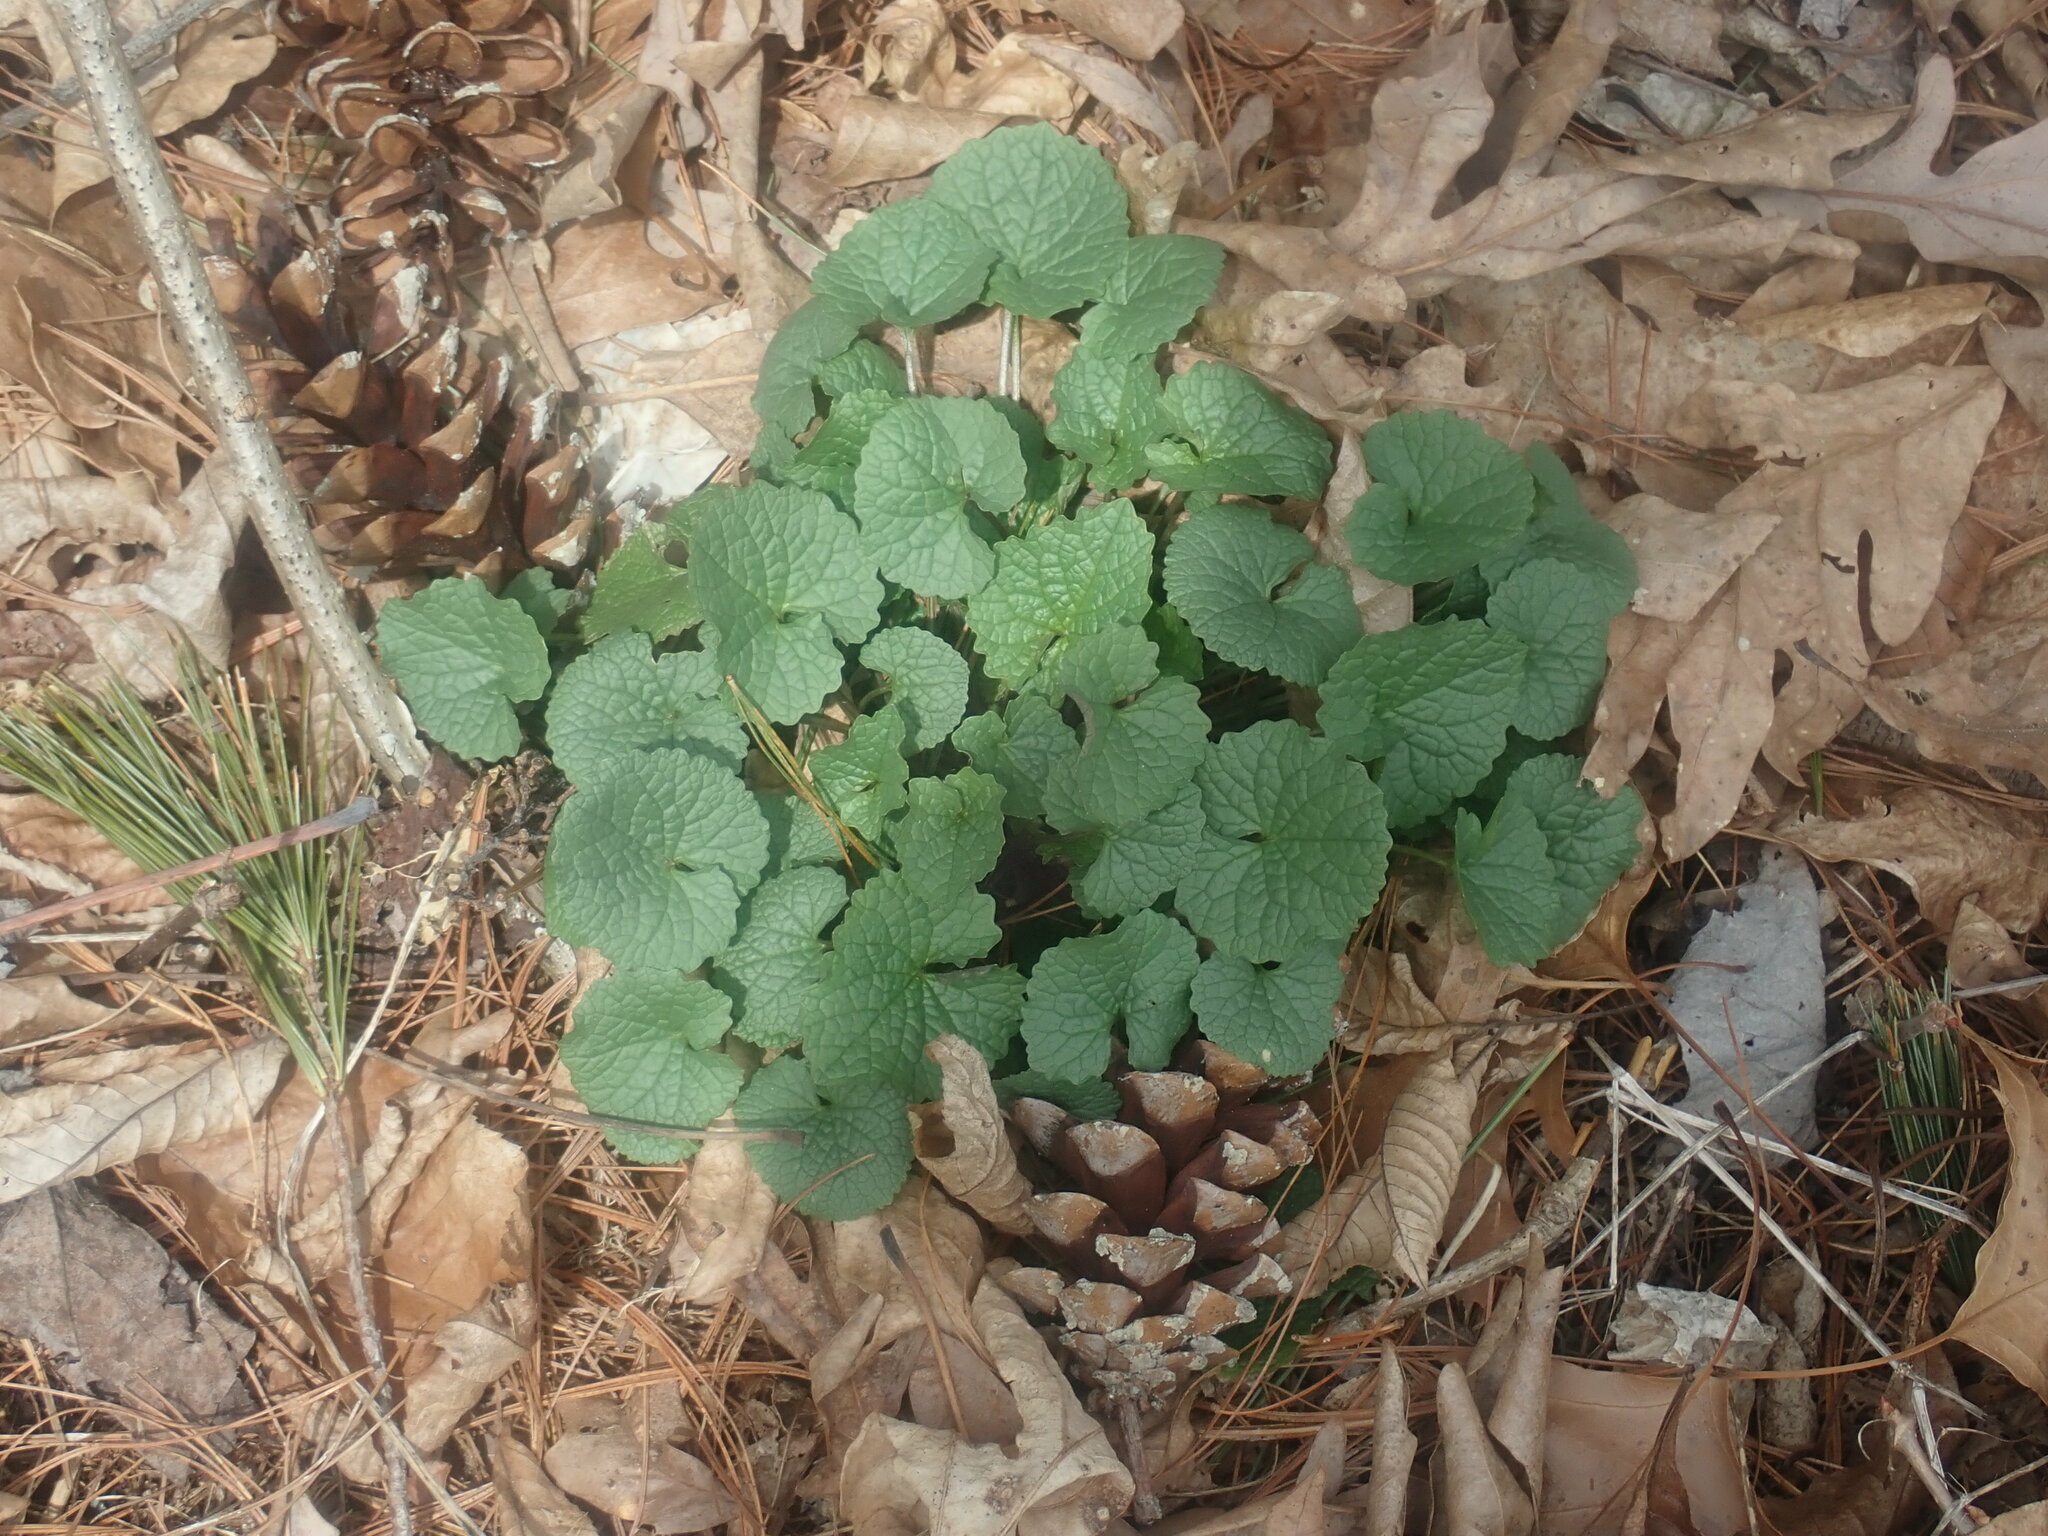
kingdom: Plantae
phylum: Tracheophyta
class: Magnoliopsida
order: Brassicales
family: Brassicaceae
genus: Alliaria
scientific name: Alliaria petiolata
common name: Garlic mustard
